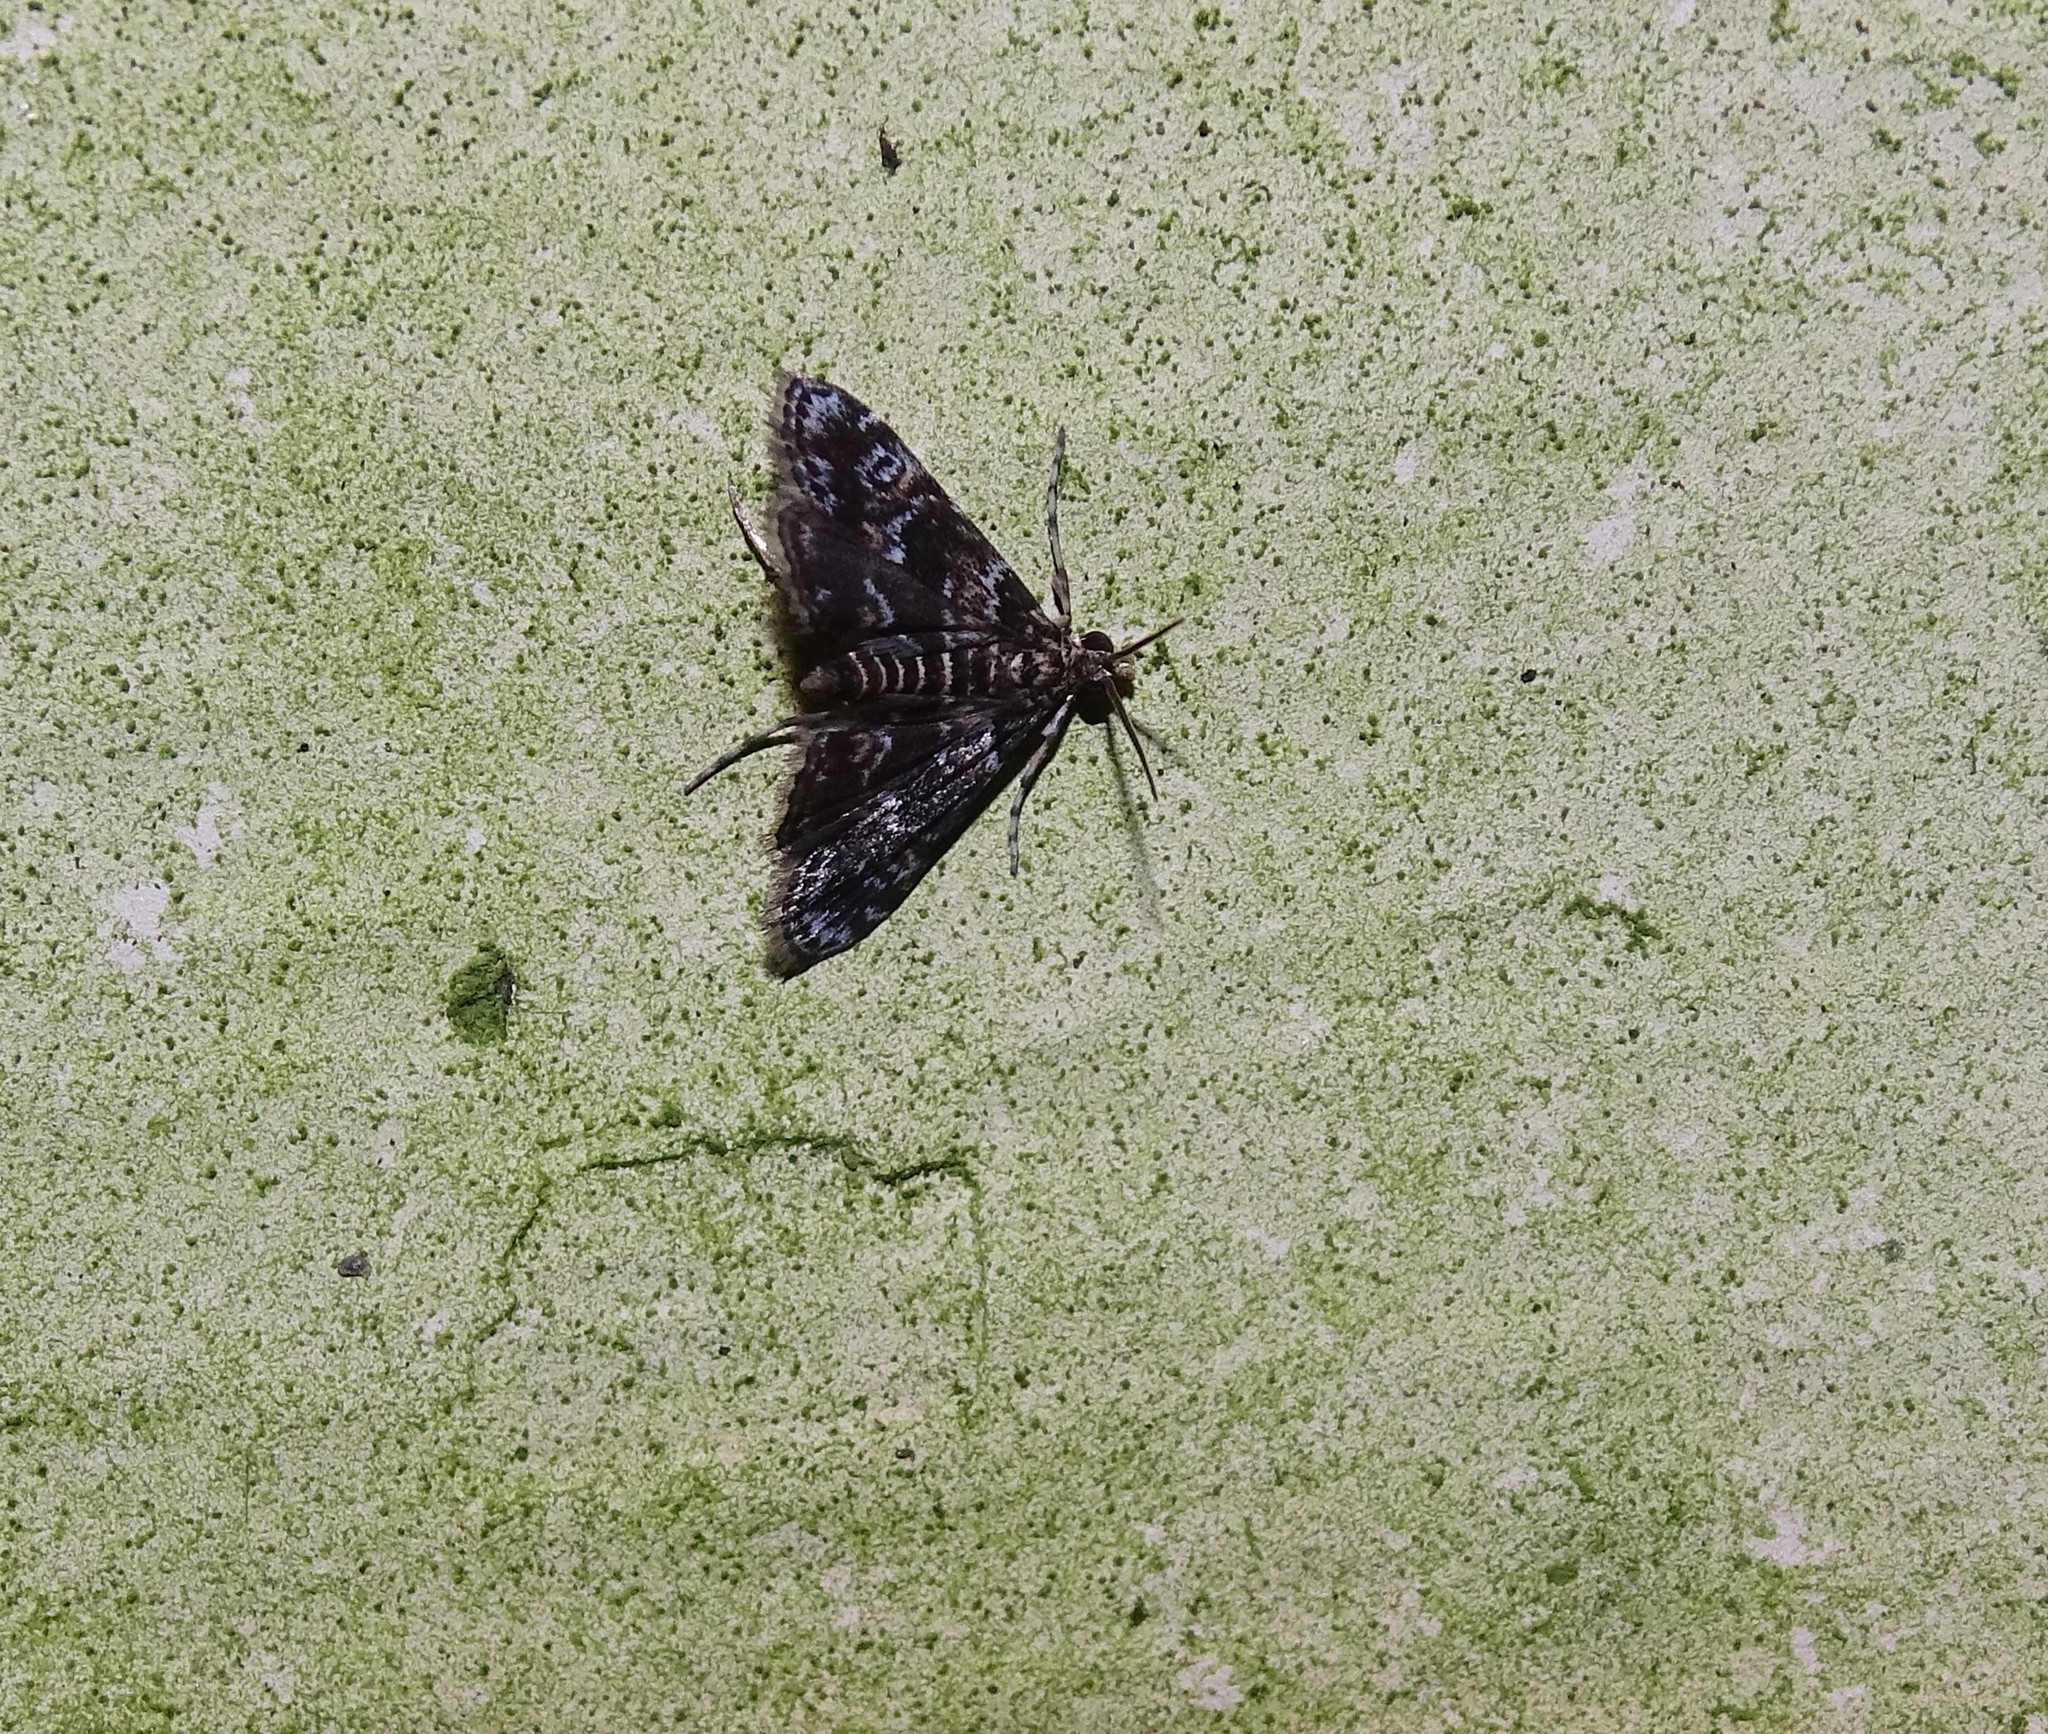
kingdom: Animalia
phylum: Arthropoda
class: Insecta
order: Lepidoptera
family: Crambidae
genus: Elophila
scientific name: Elophila obliteralis
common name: Waterlily leafcutter moth
